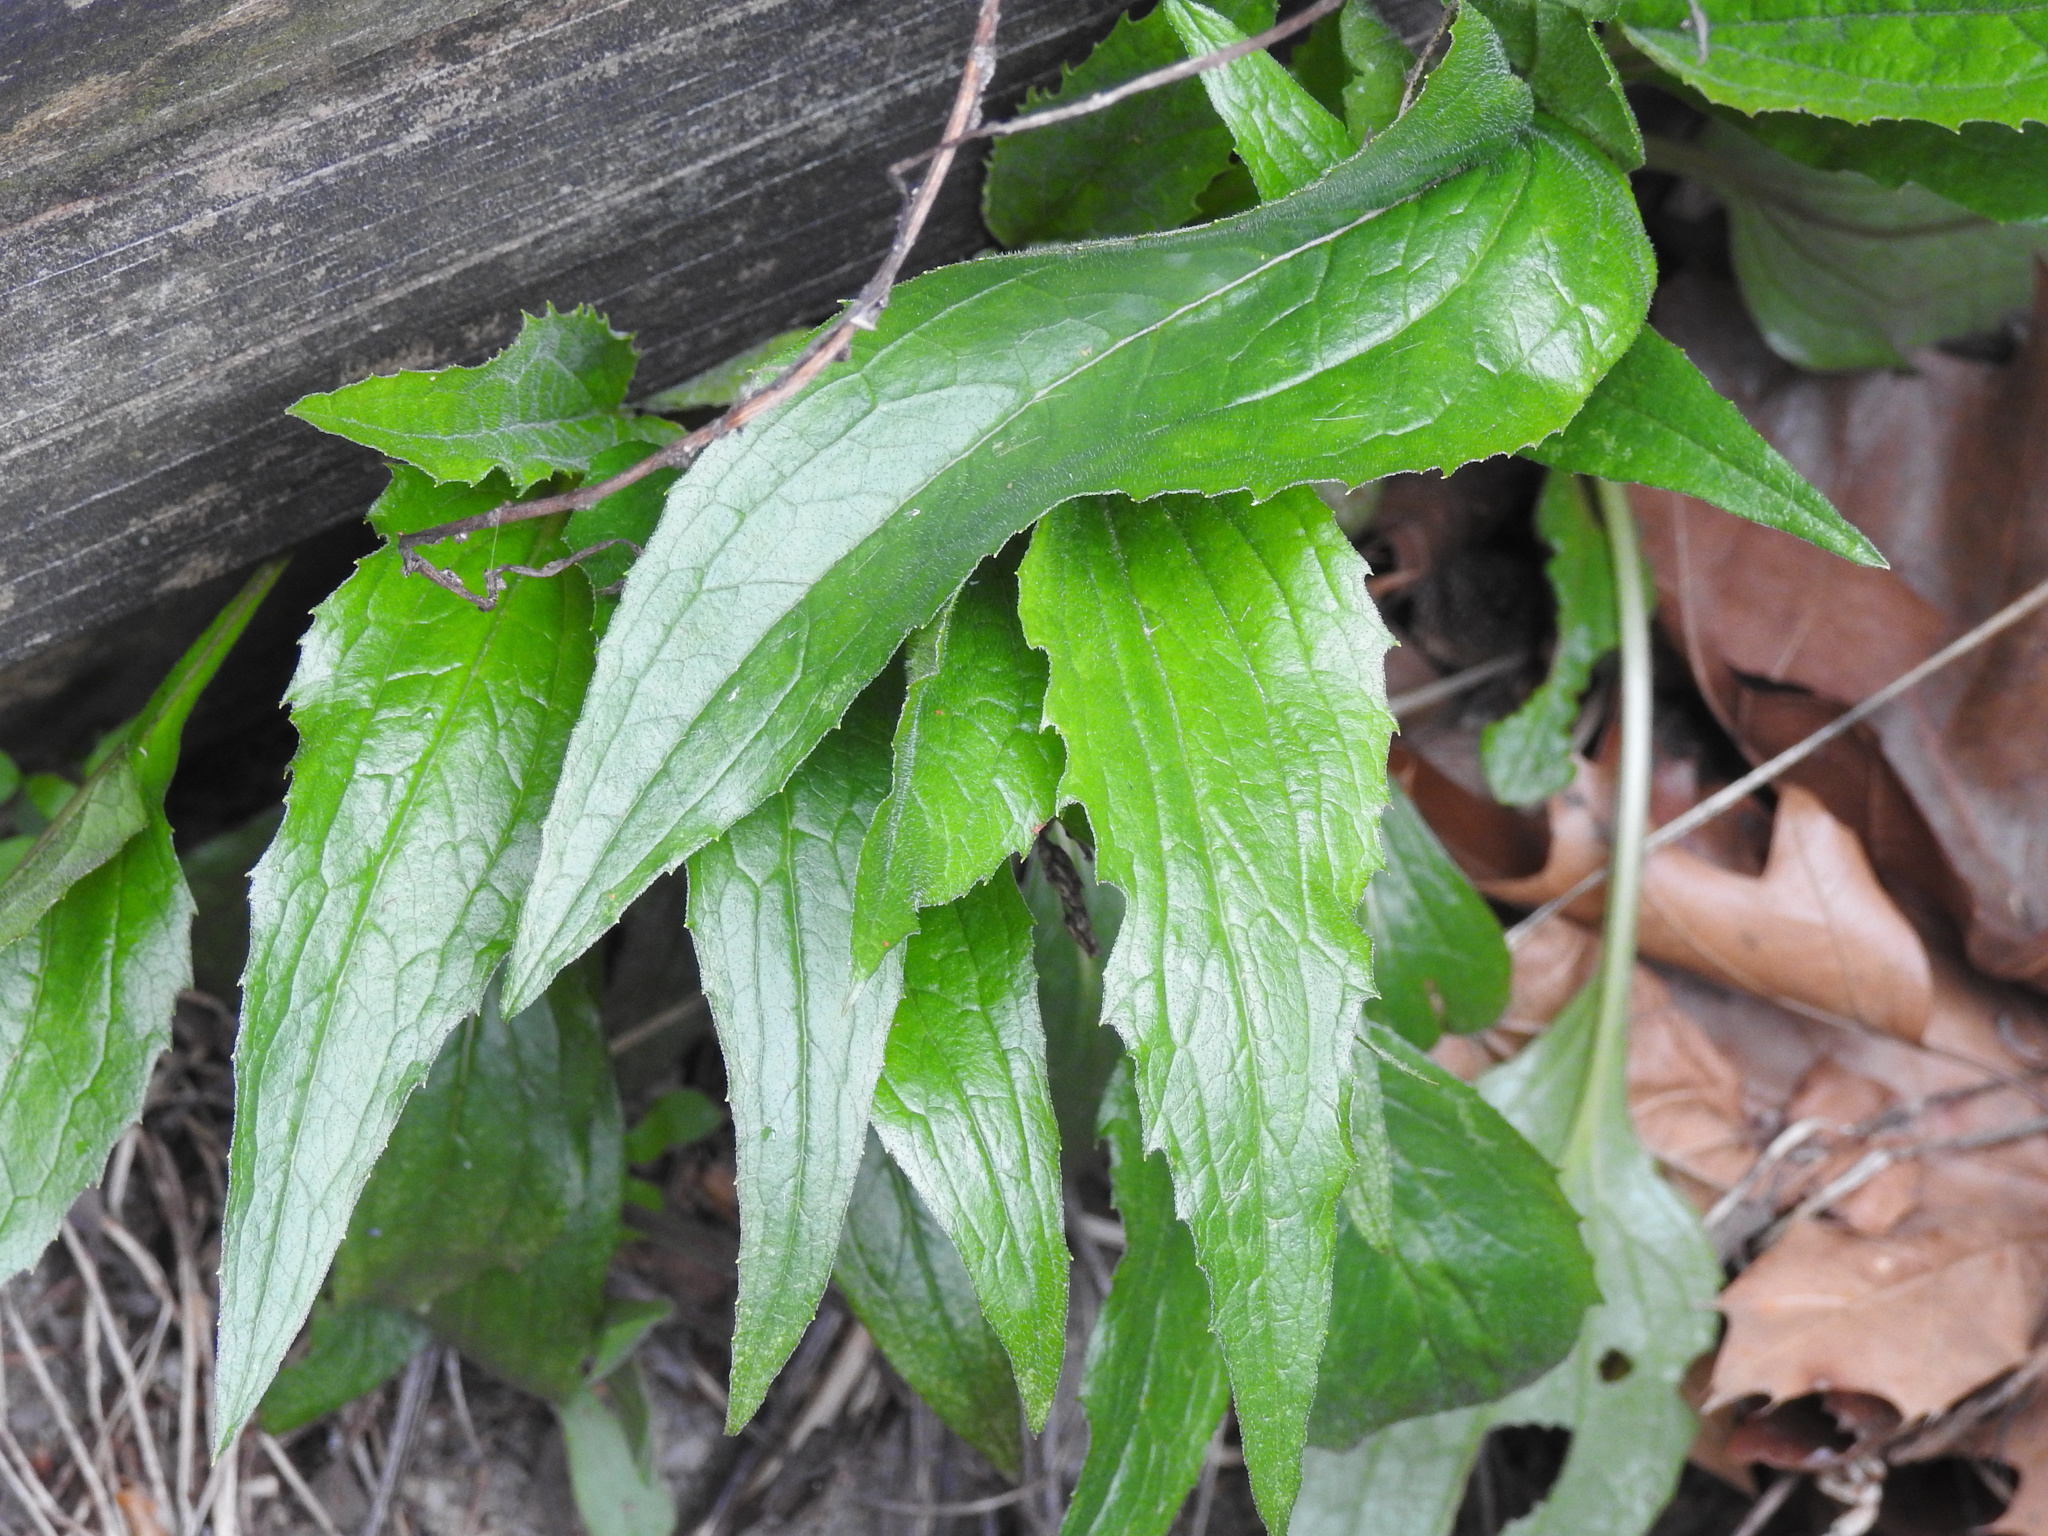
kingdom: Plantae
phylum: Tracheophyta
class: Magnoliopsida
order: Asterales
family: Asteraceae
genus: Echinacea
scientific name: Echinacea purpurea
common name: Broad-leaved purple coneflower
